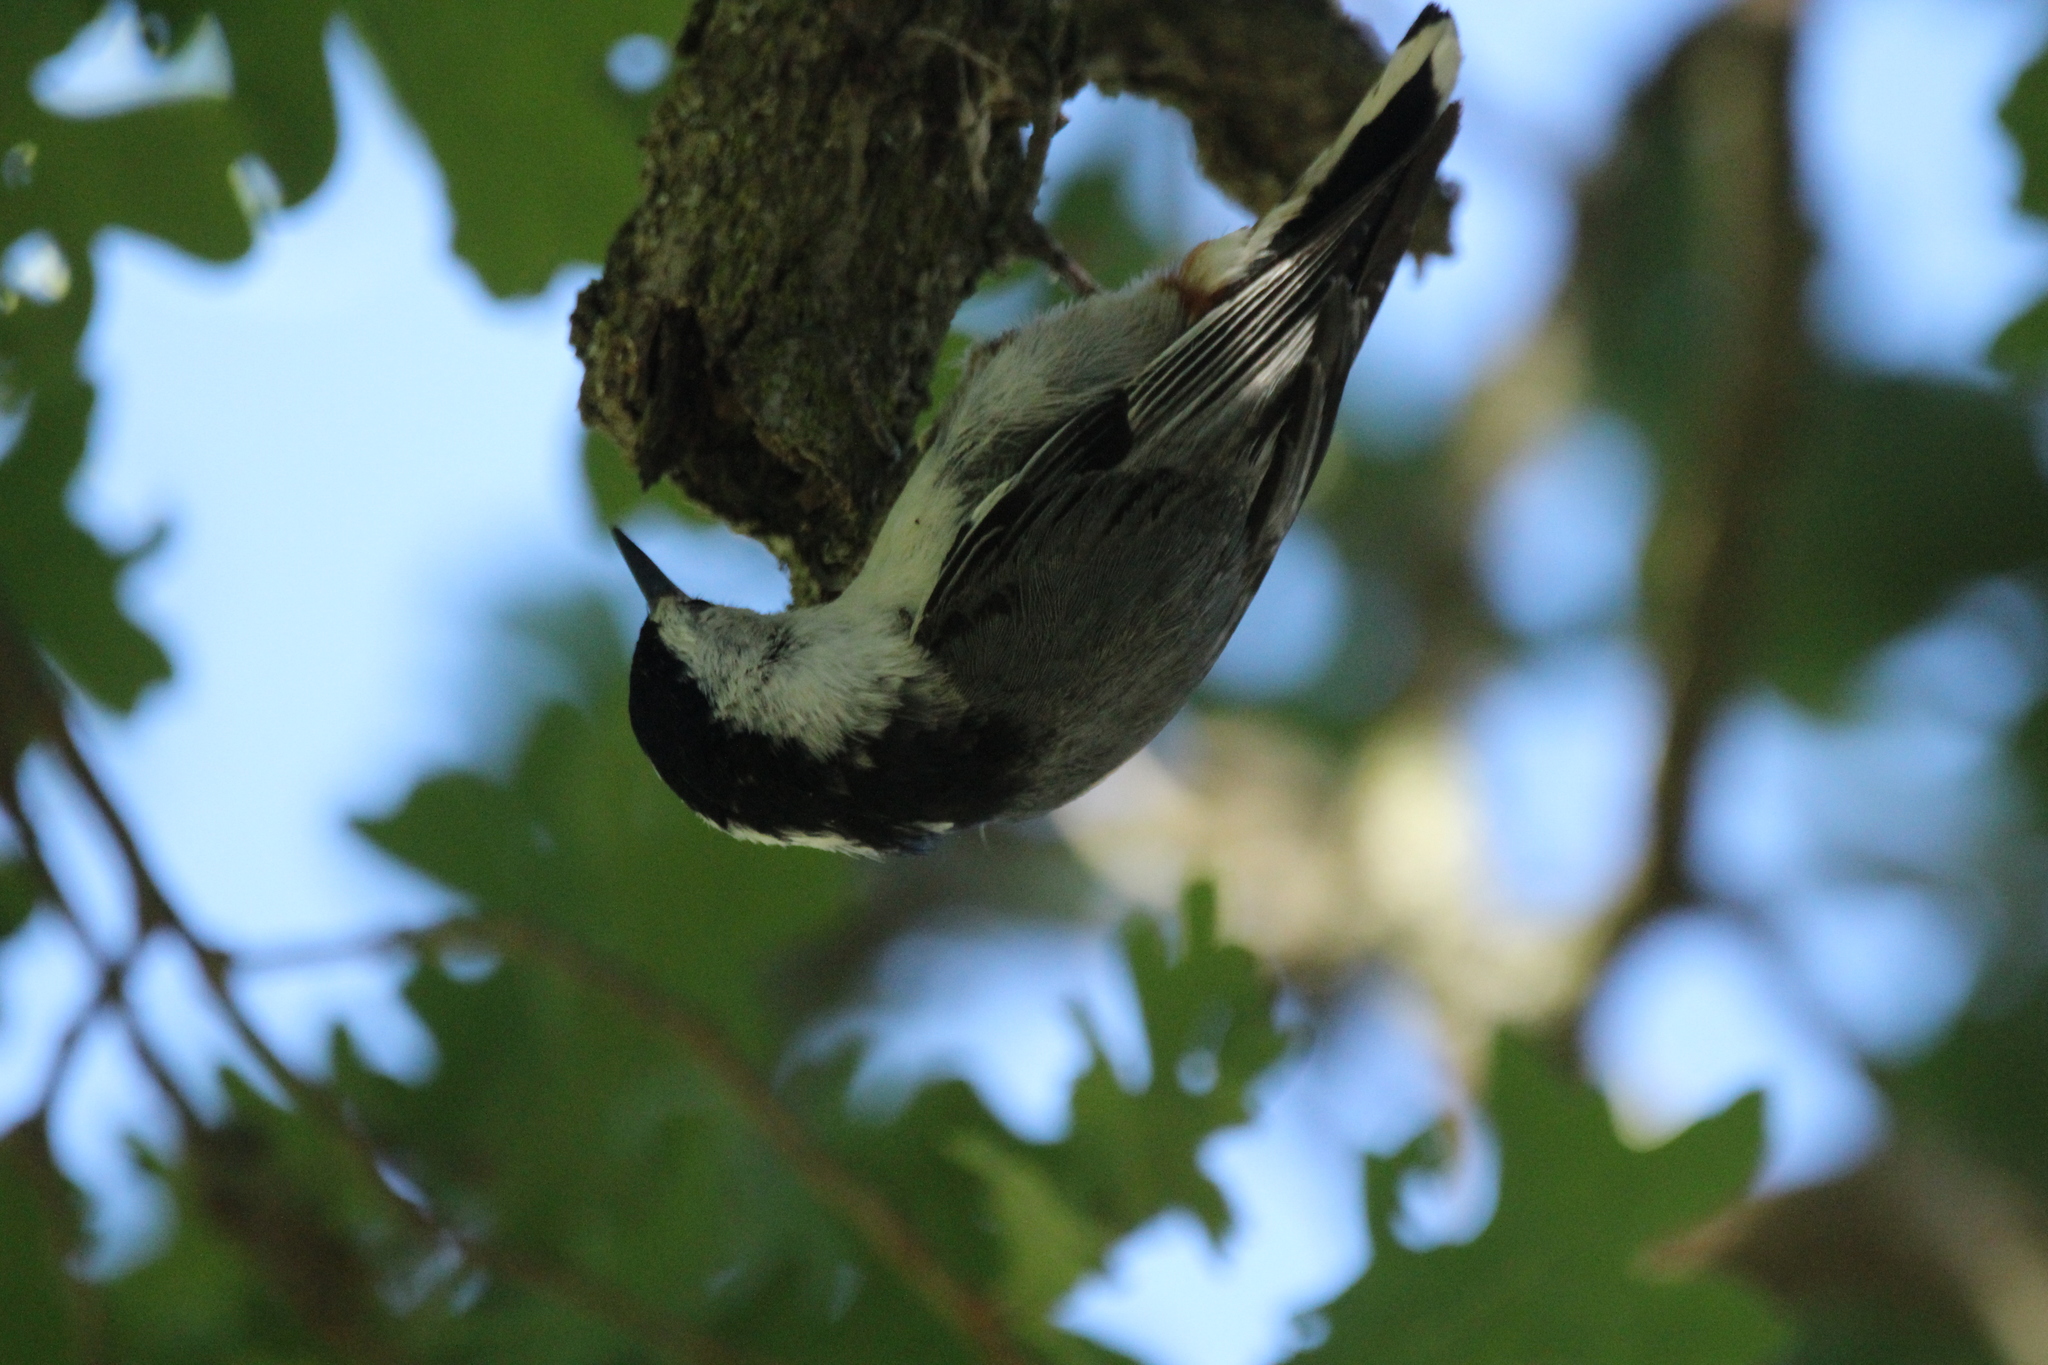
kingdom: Animalia
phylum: Chordata
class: Aves
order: Passeriformes
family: Sittidae
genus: Sitta
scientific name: Sitta carolinensis
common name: White-breasted nuthatch
